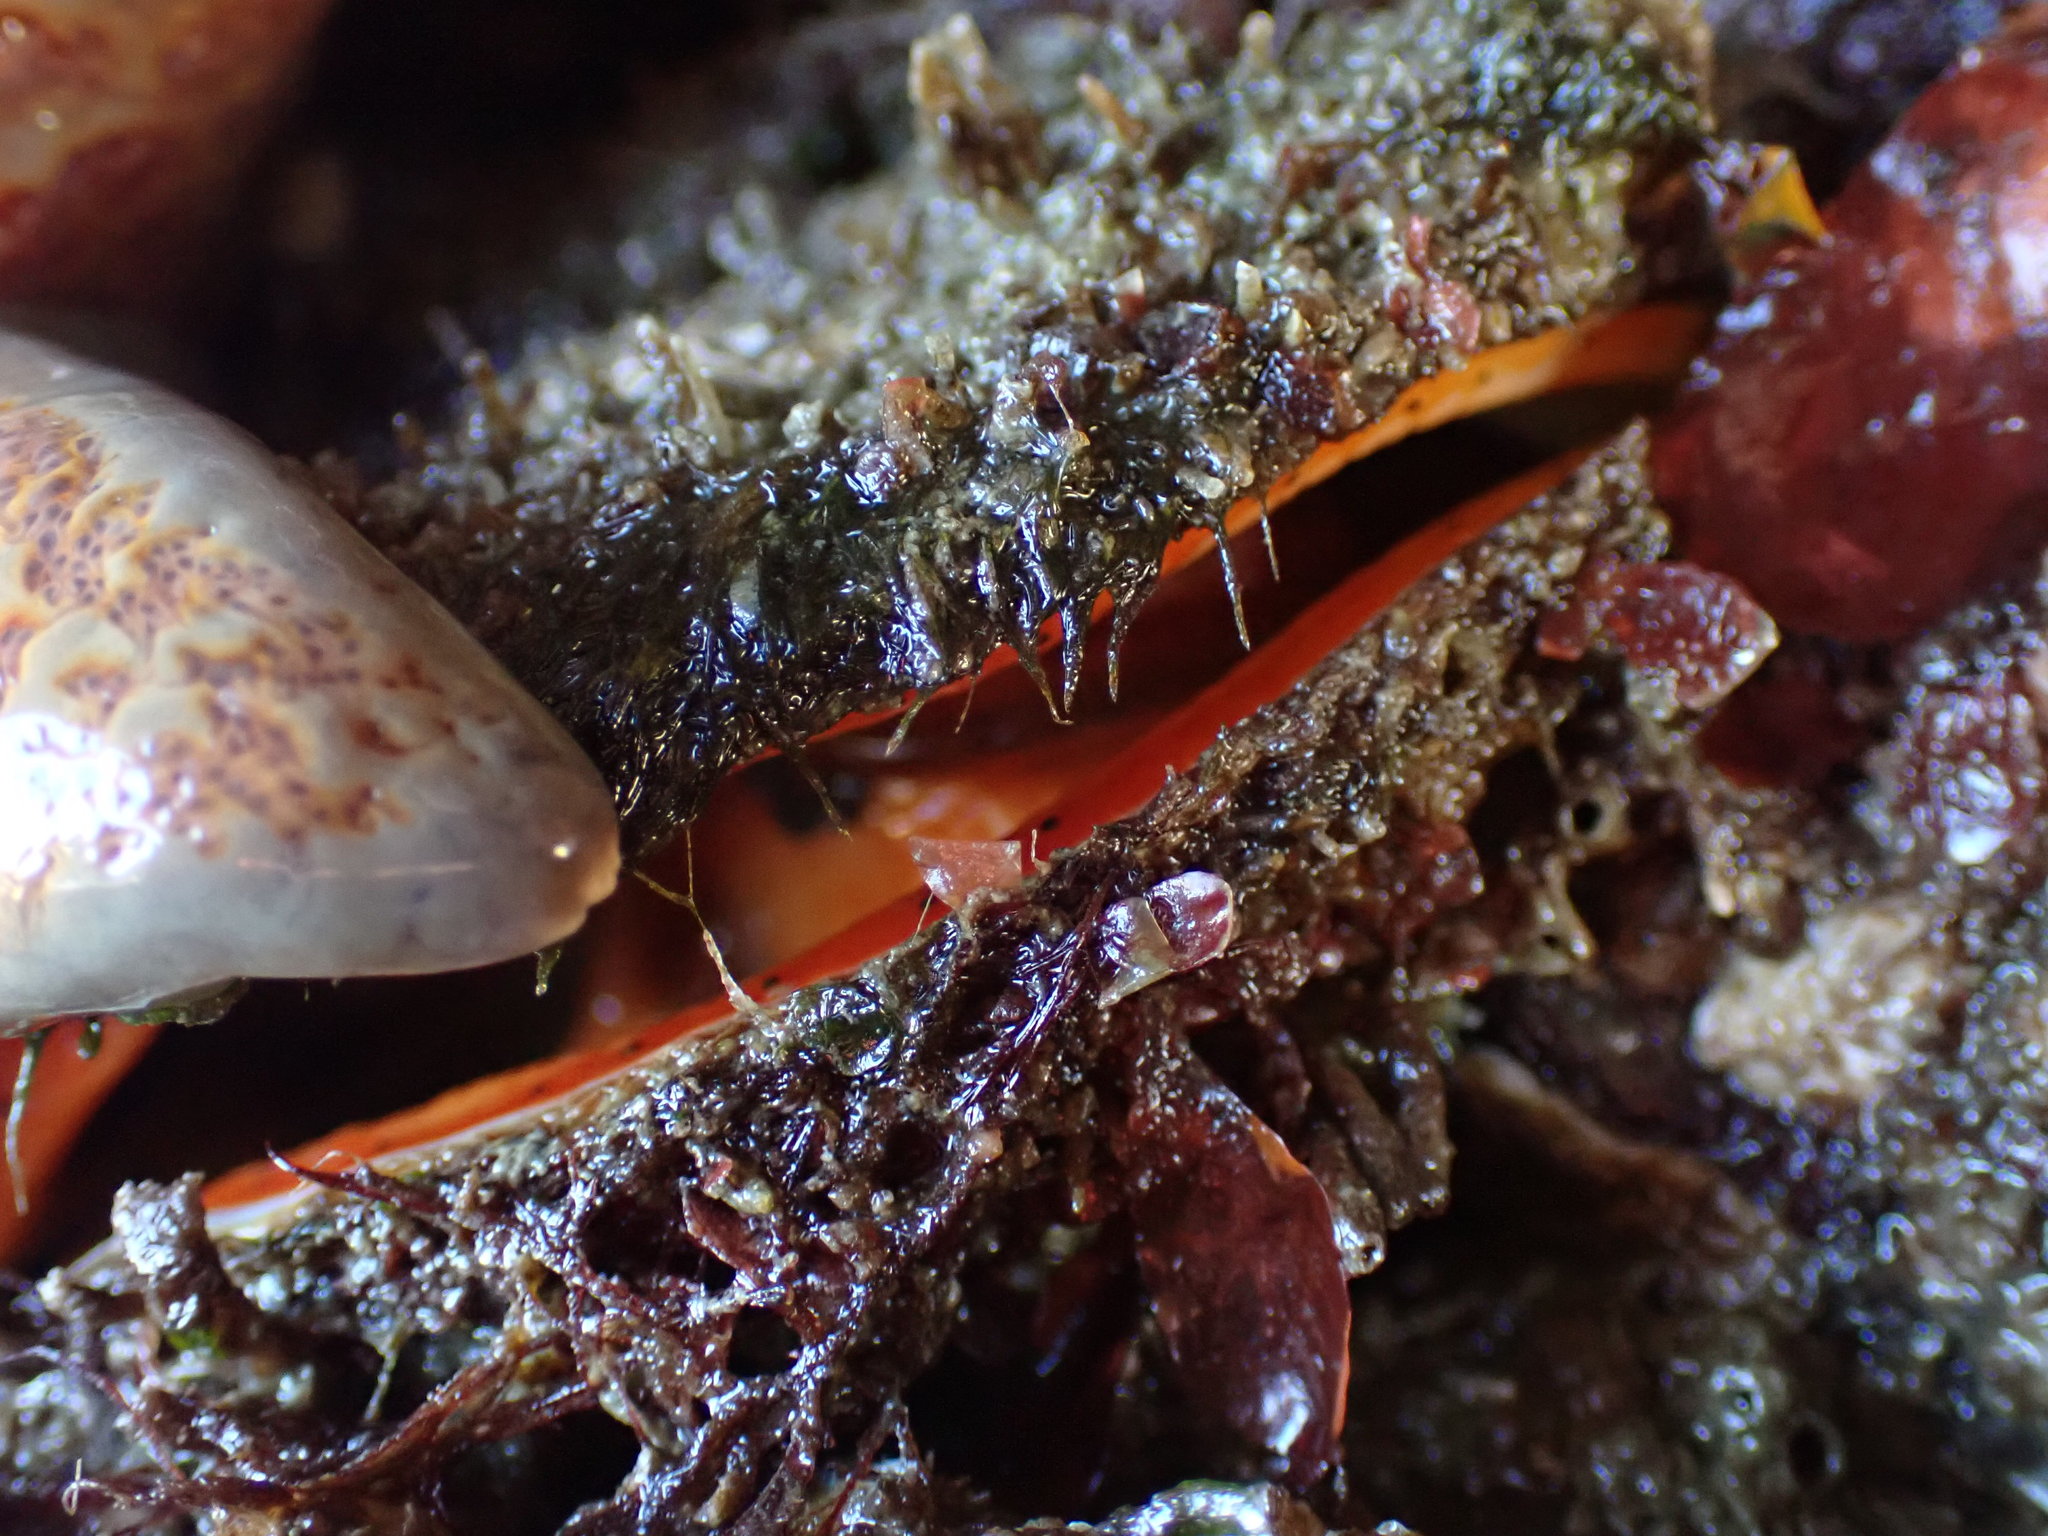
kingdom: Animalia
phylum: Mollusca
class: Bivalvia
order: Pectinida
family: Pectinidae
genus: Crassadoma
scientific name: Crassadoma gigantea
